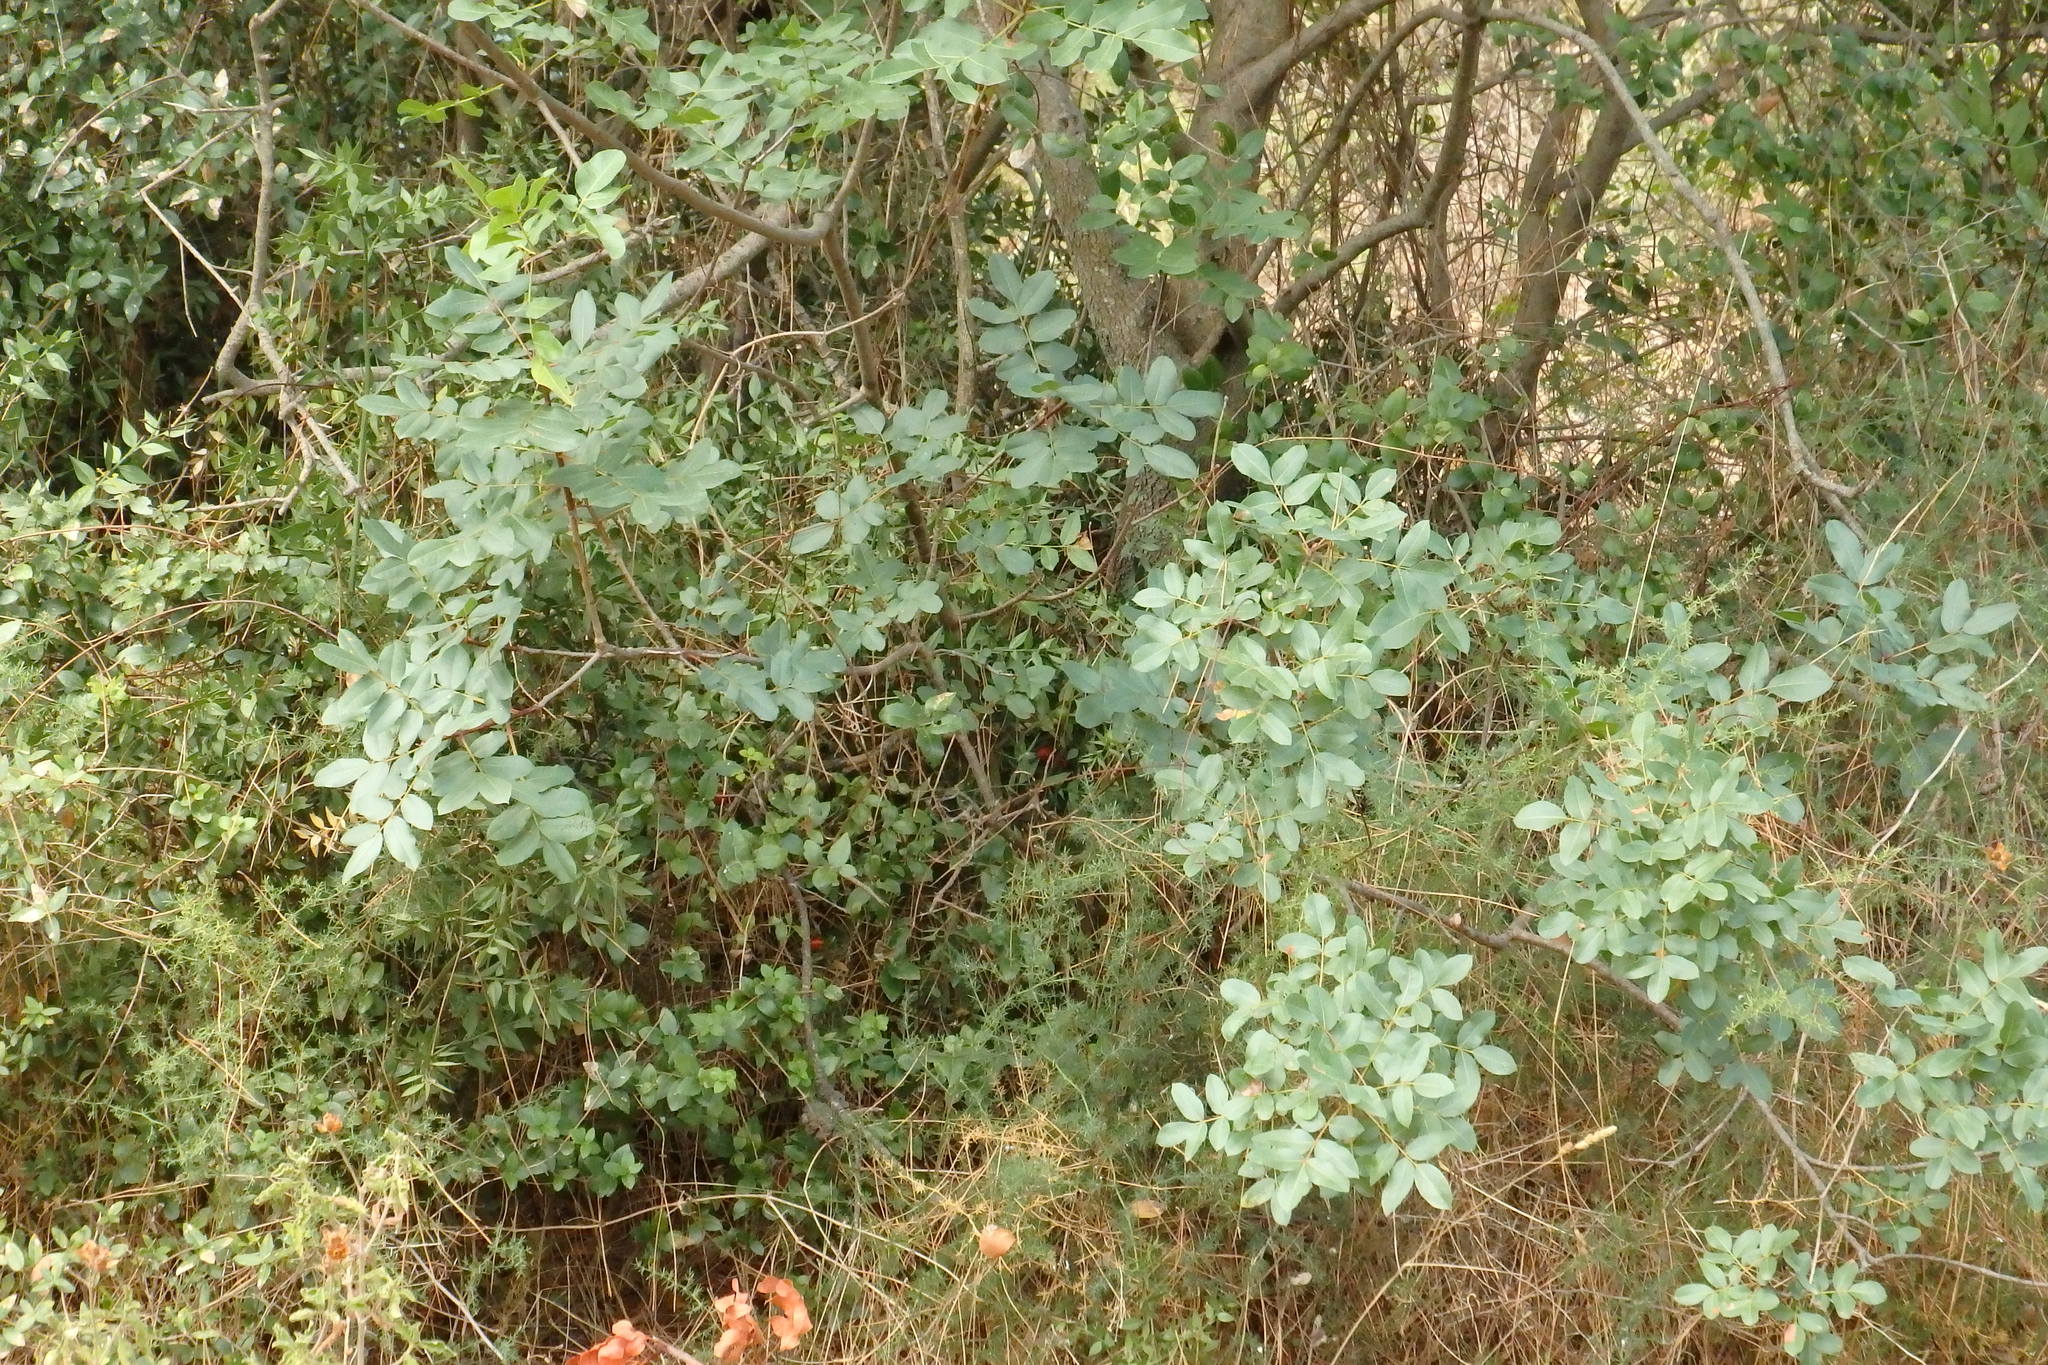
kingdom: Plantae
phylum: Tracheophyta
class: Magnoliopsida
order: Sapindales
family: Anacardiaceae
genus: Pistacia
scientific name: Pistacia terebinthus
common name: Terebinth
